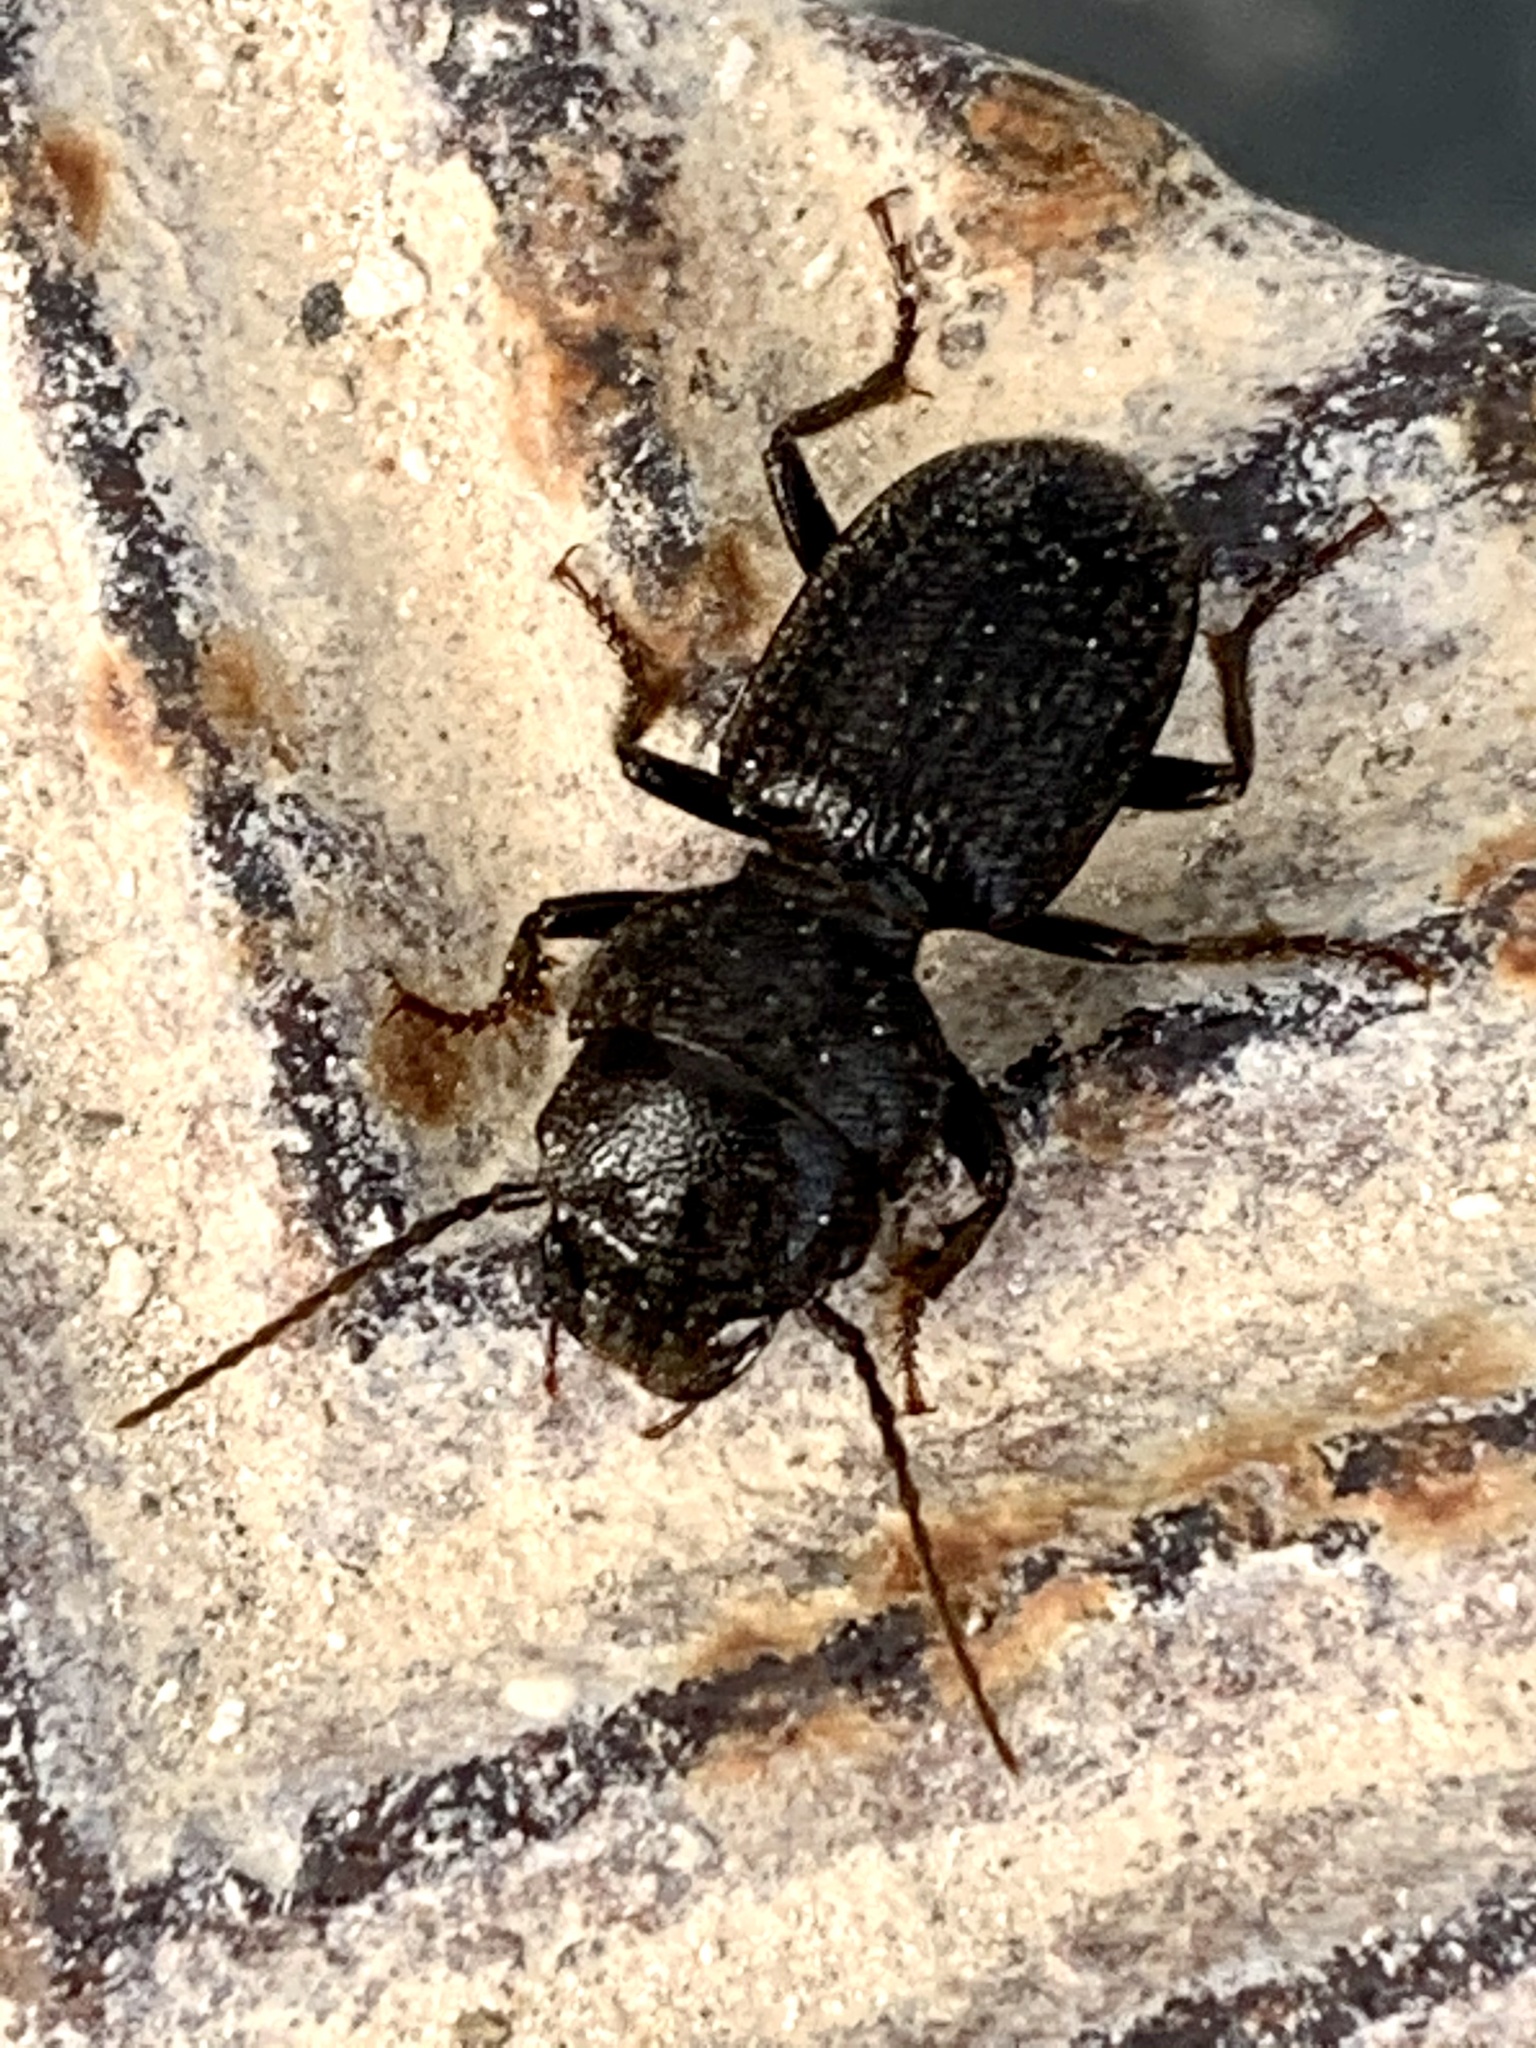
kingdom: Animalia
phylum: Arthropoda
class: Insecta
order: Coleoptera
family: Carabidae
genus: Dixus
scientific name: Dixus capito
